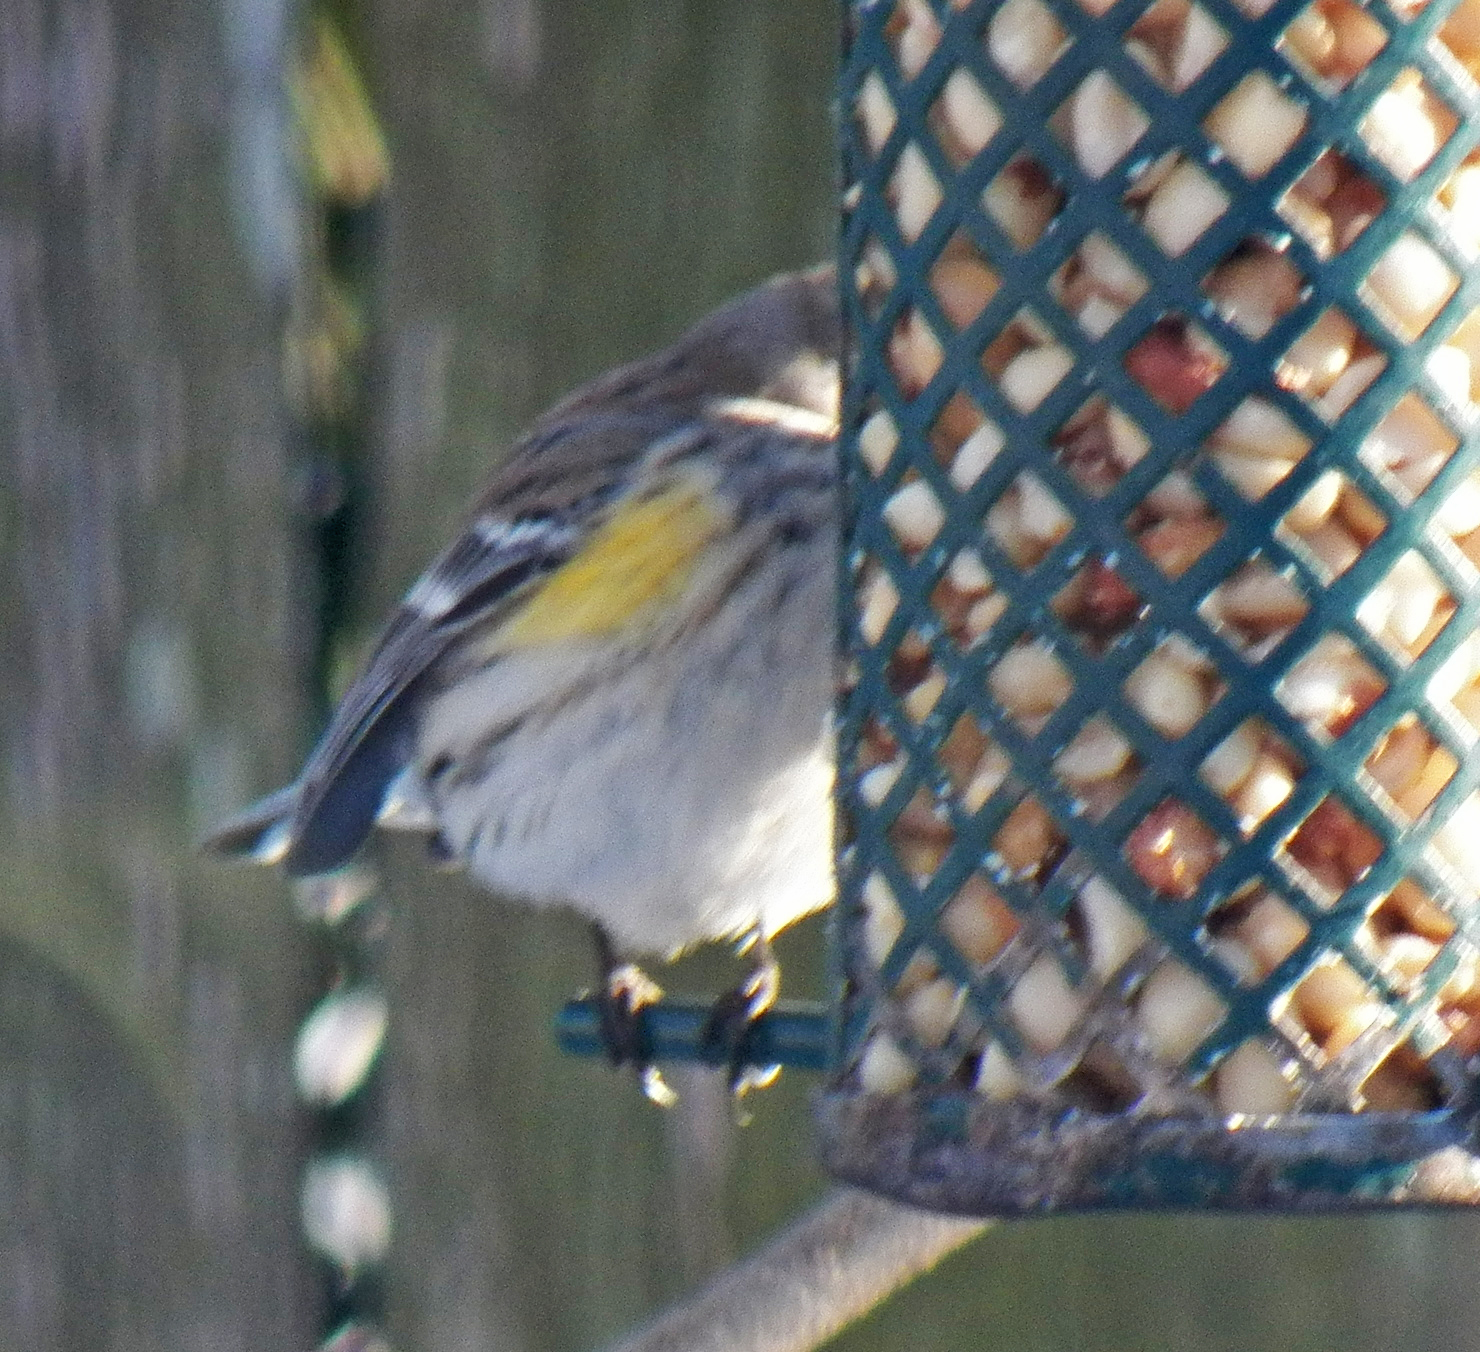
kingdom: Animalia
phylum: Chordata
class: Aves
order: Passeriformes
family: Parulidae
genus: Setophaga
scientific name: Setophaga coronata
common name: Myrtle warbler
